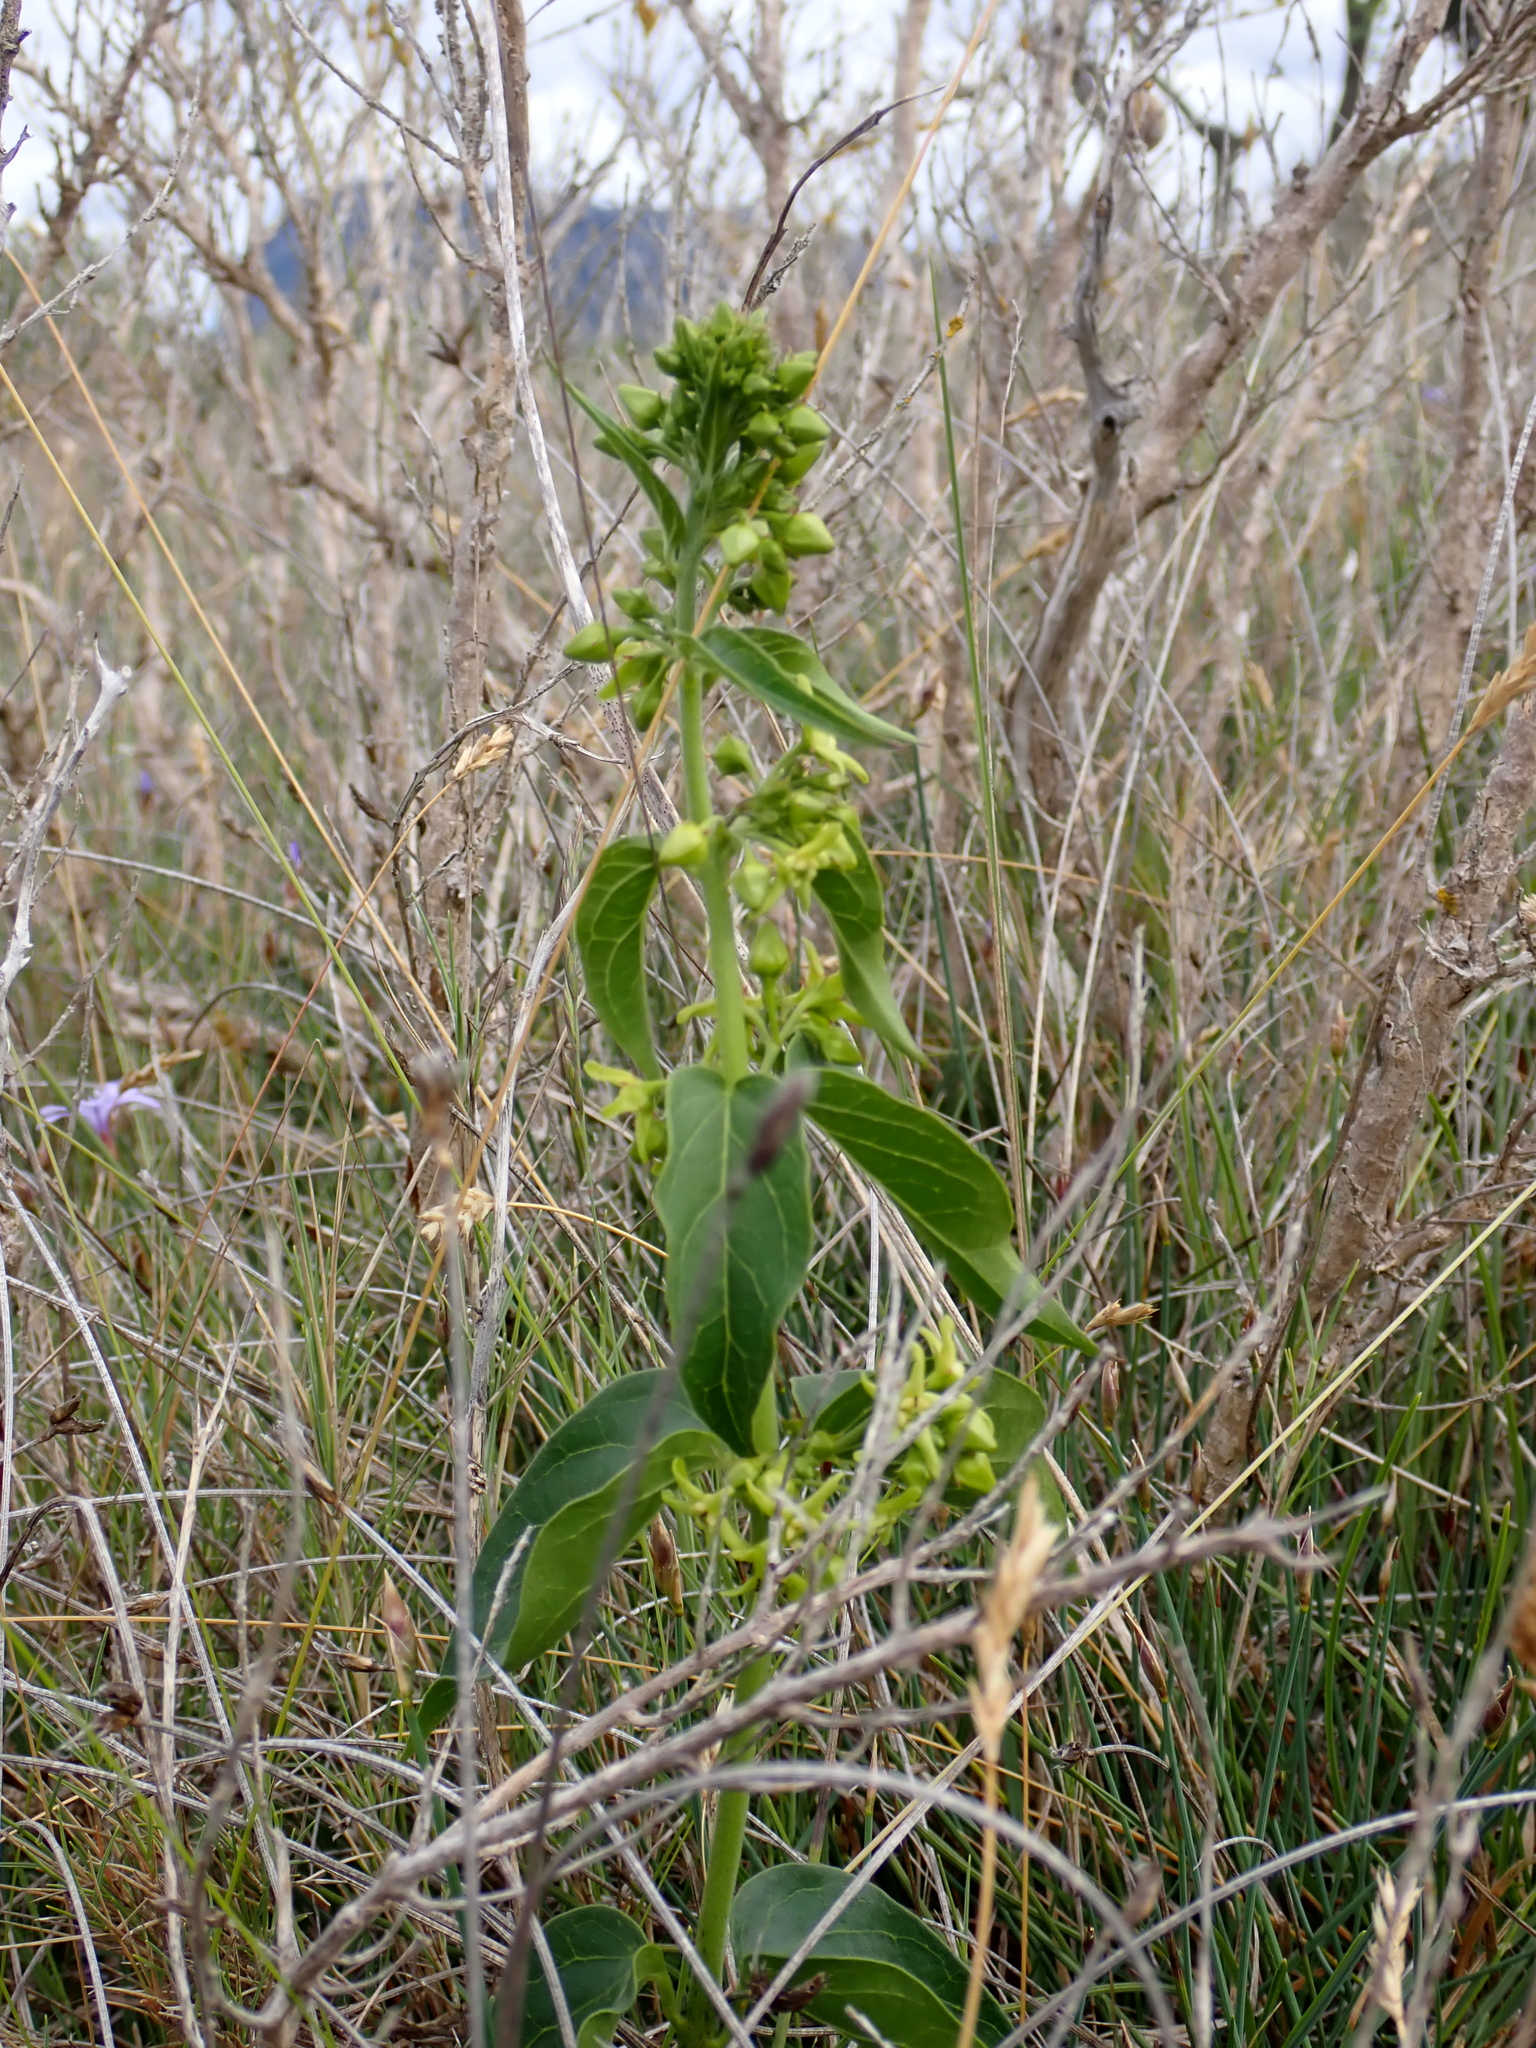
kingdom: Plantae
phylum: Tracheophyta
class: Magnoliopsida
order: Gentianales
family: Apocynaceae
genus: Vincetoxicum
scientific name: Vincetoxicum hirundinaria
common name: White swallowwort
